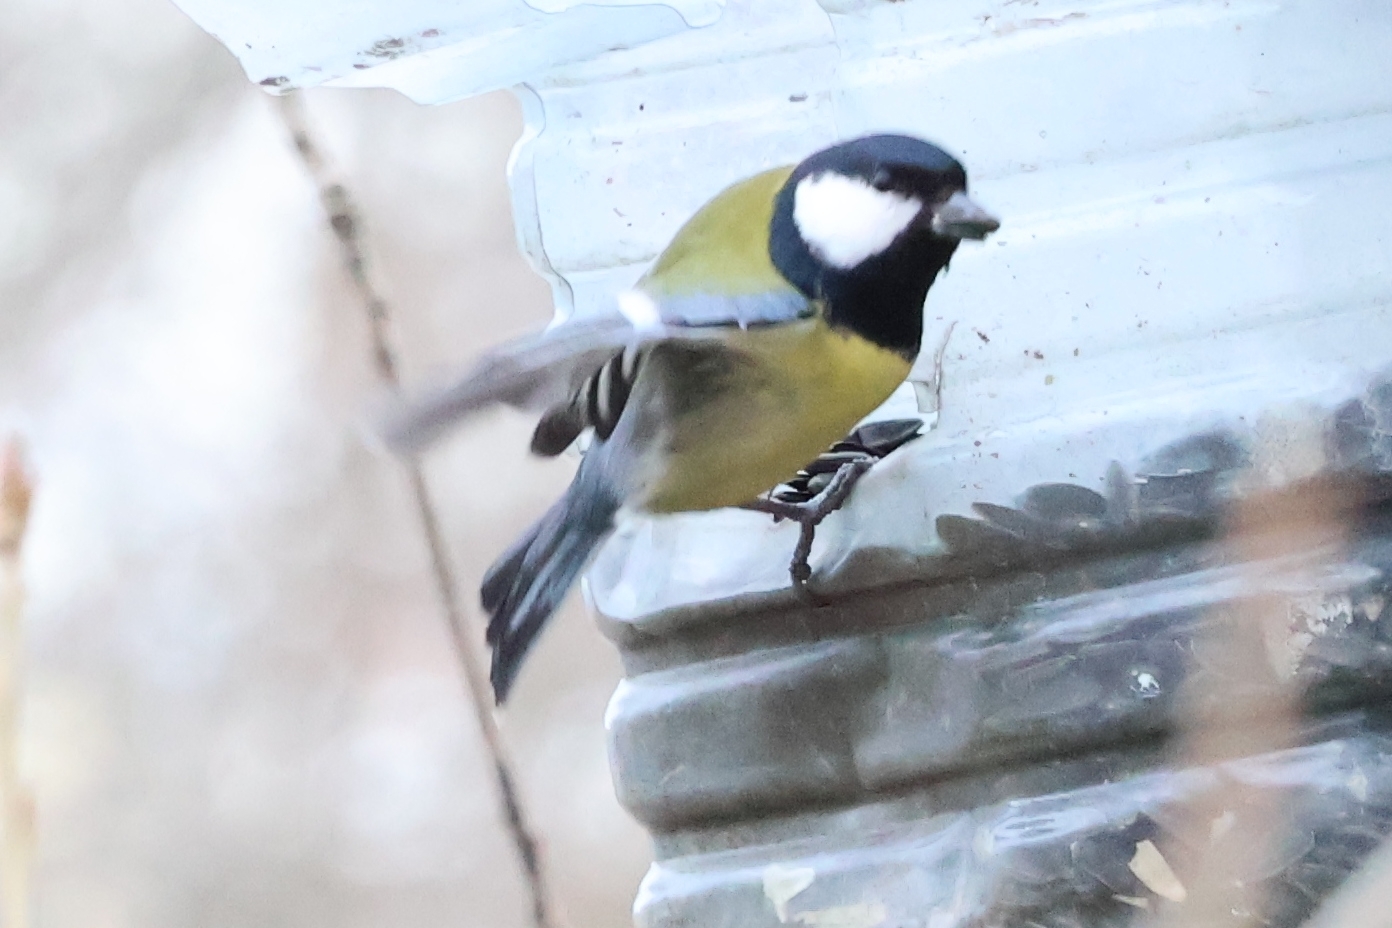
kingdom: Animalia
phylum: Chordata
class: Aves
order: Passeriformes
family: Paridae
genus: Parus
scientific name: Parus major
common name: Great tit
